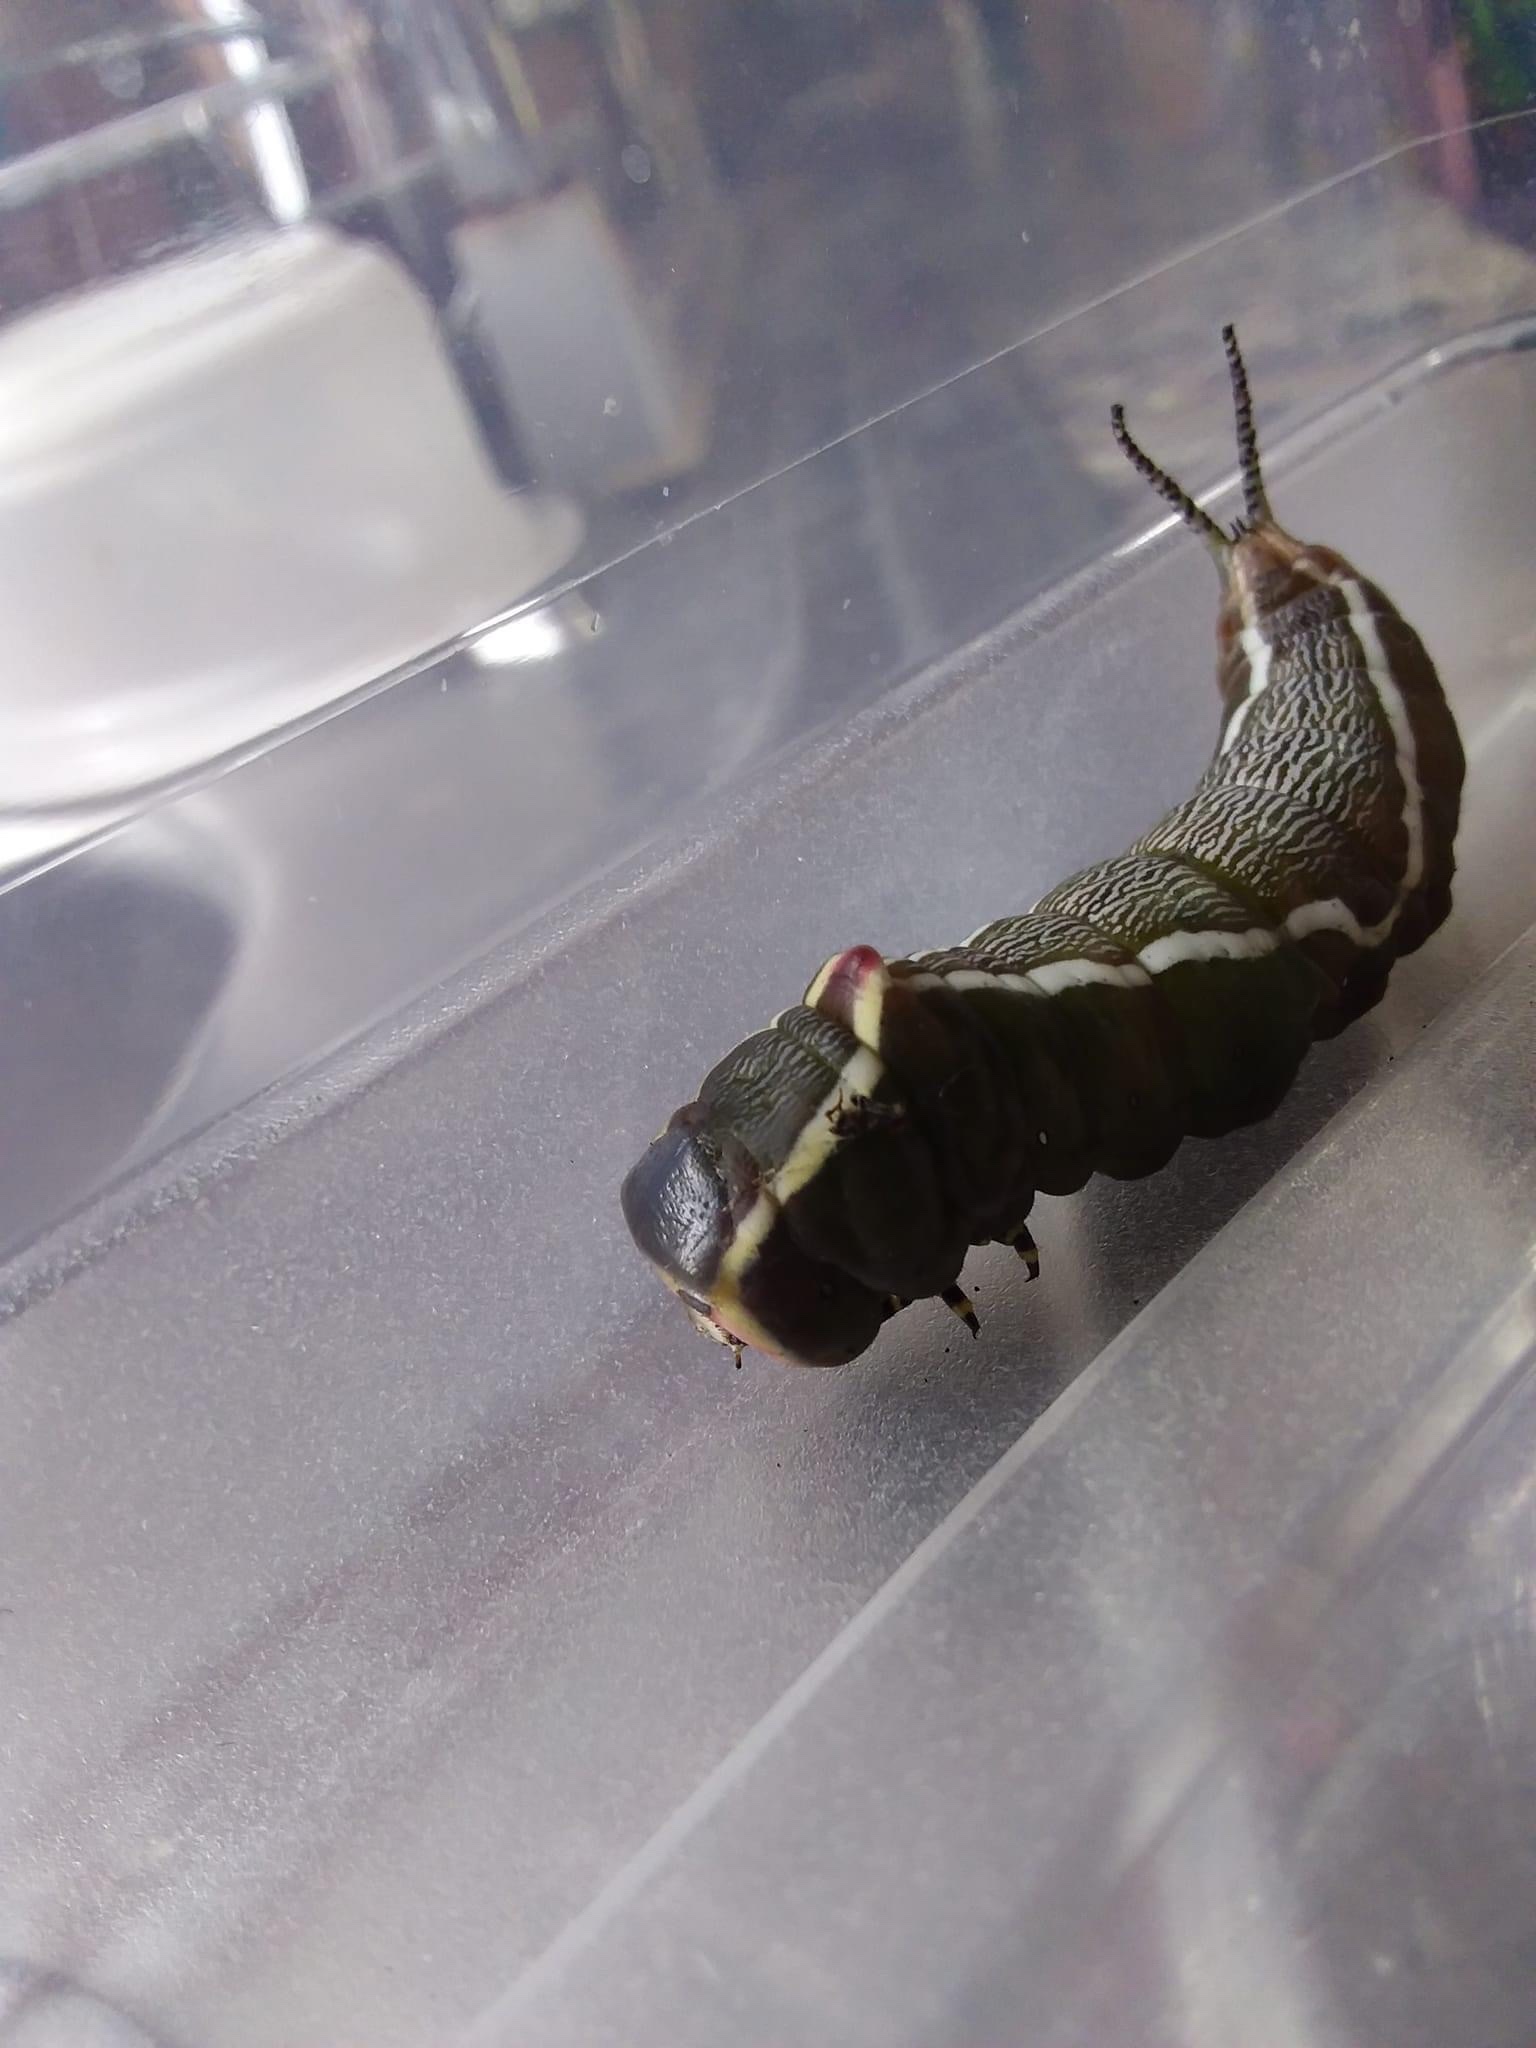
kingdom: Animalia
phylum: Arthropoda
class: Insecta
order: Lepidoptera
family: Notodontidae
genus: Cerura
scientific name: Cerura vinula
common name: Puss moth
